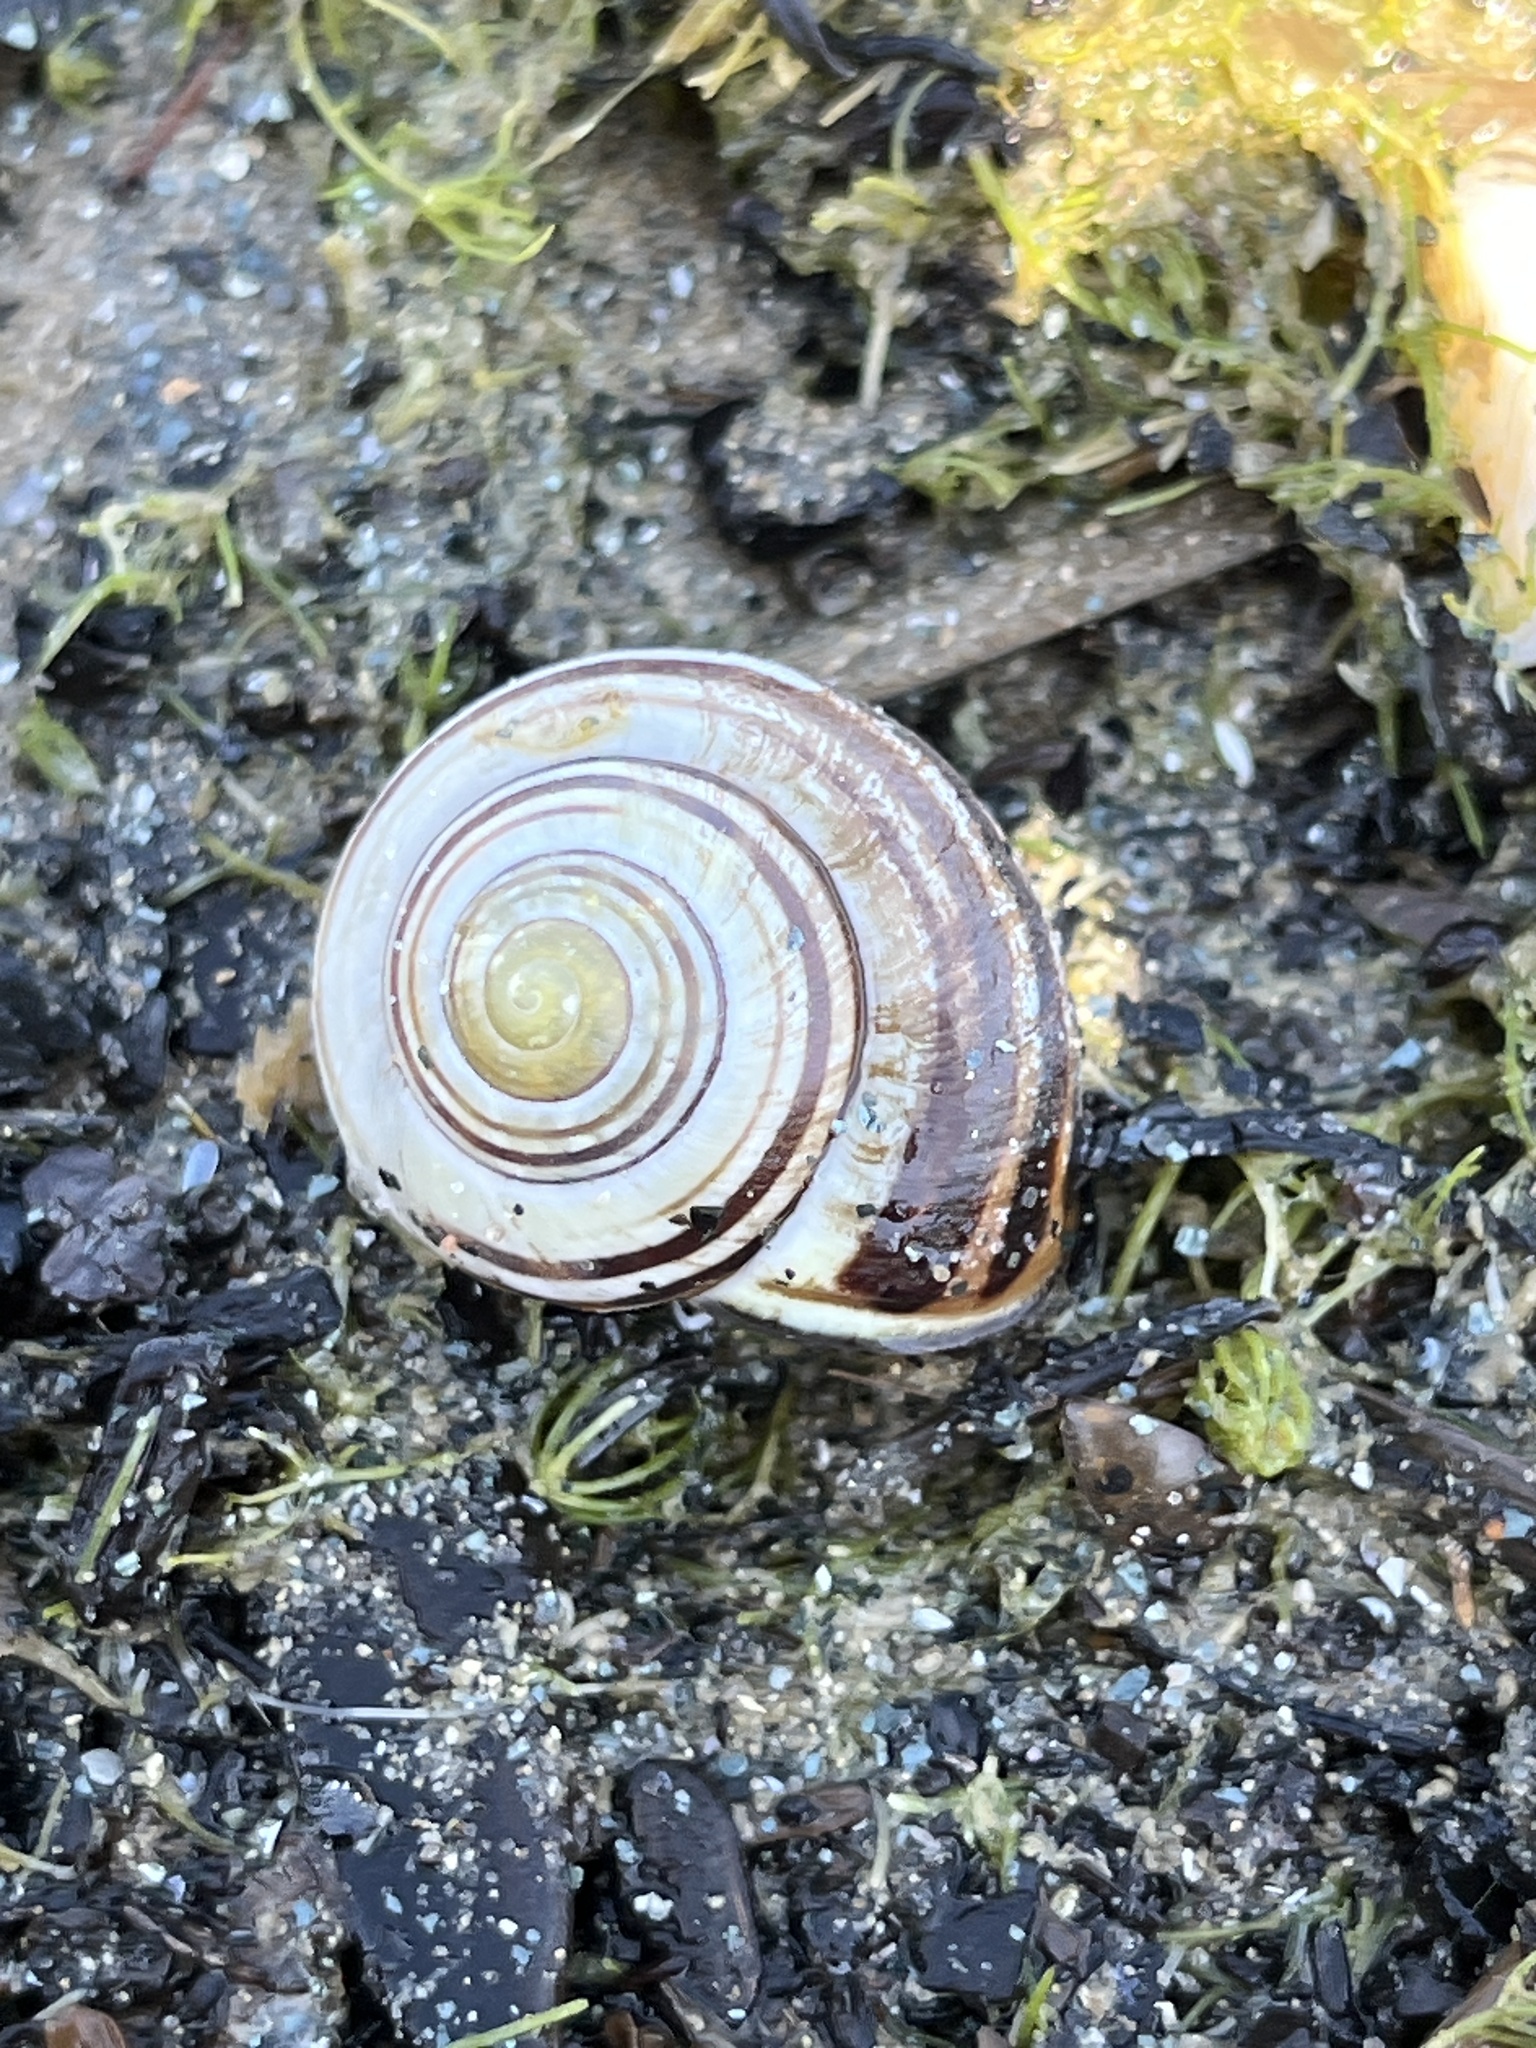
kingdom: Animalia
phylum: Mollusca
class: Gastropoda
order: Stylommatophora
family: Helicidae
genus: Cepaea
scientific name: Cepaea nemoralis
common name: Grovesnail
